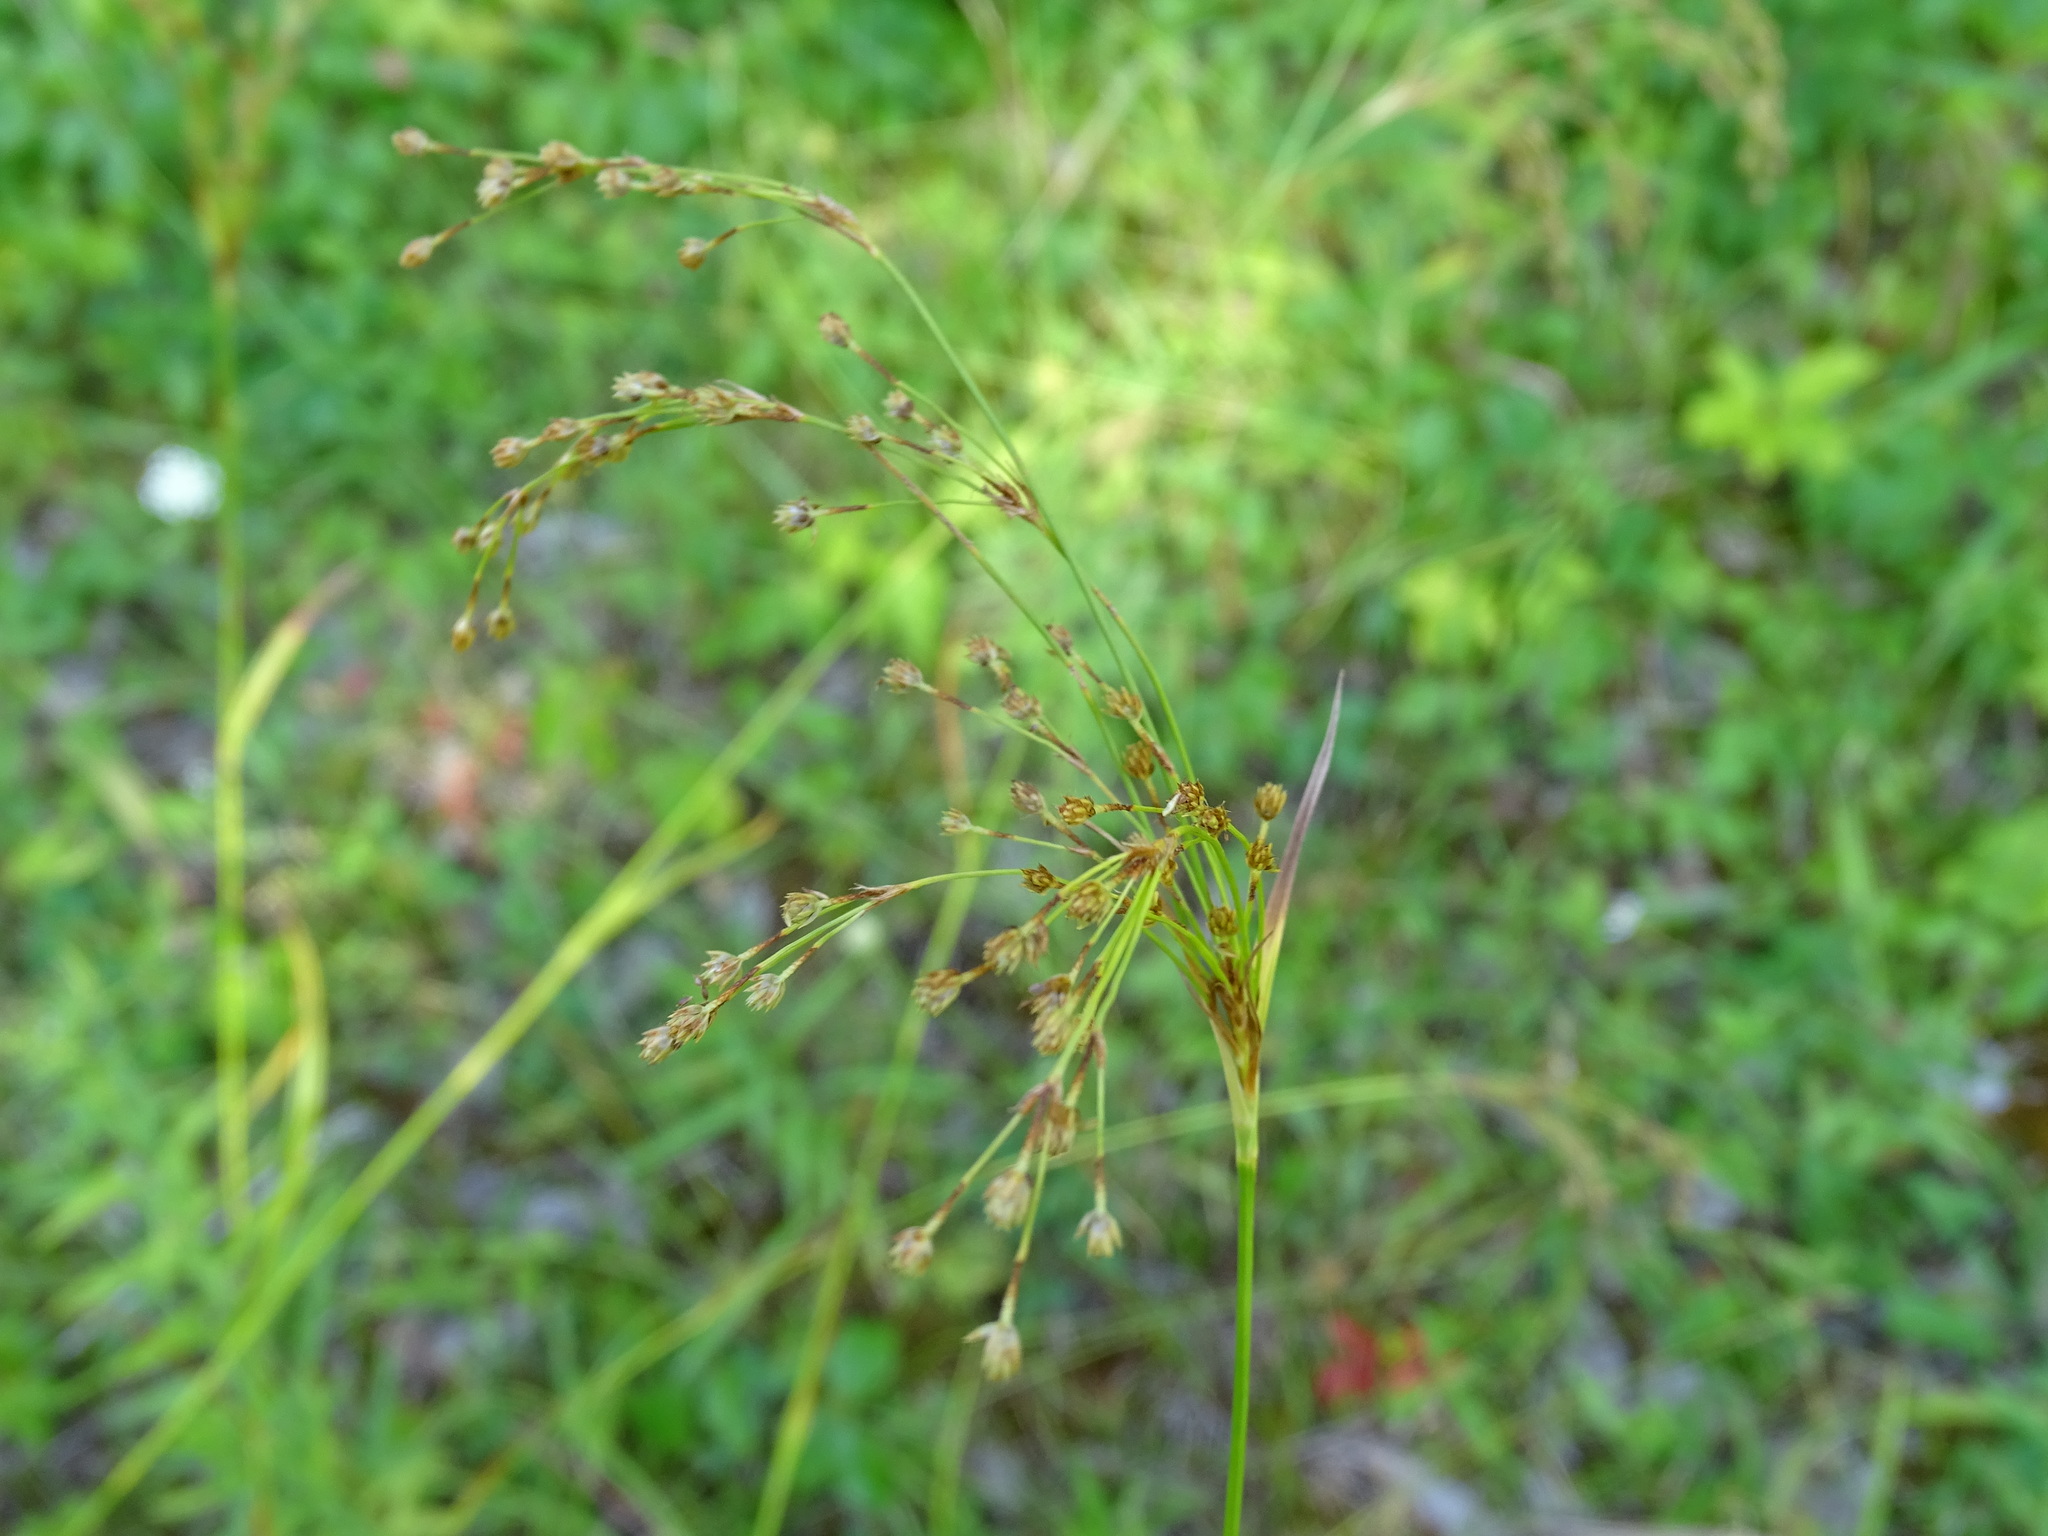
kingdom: Plantae
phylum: Tracheophyta
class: Liliopsida
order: Poales
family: Cyperaceae
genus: Scirpus
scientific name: Scirpus pendulus
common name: Nodding bulrush
